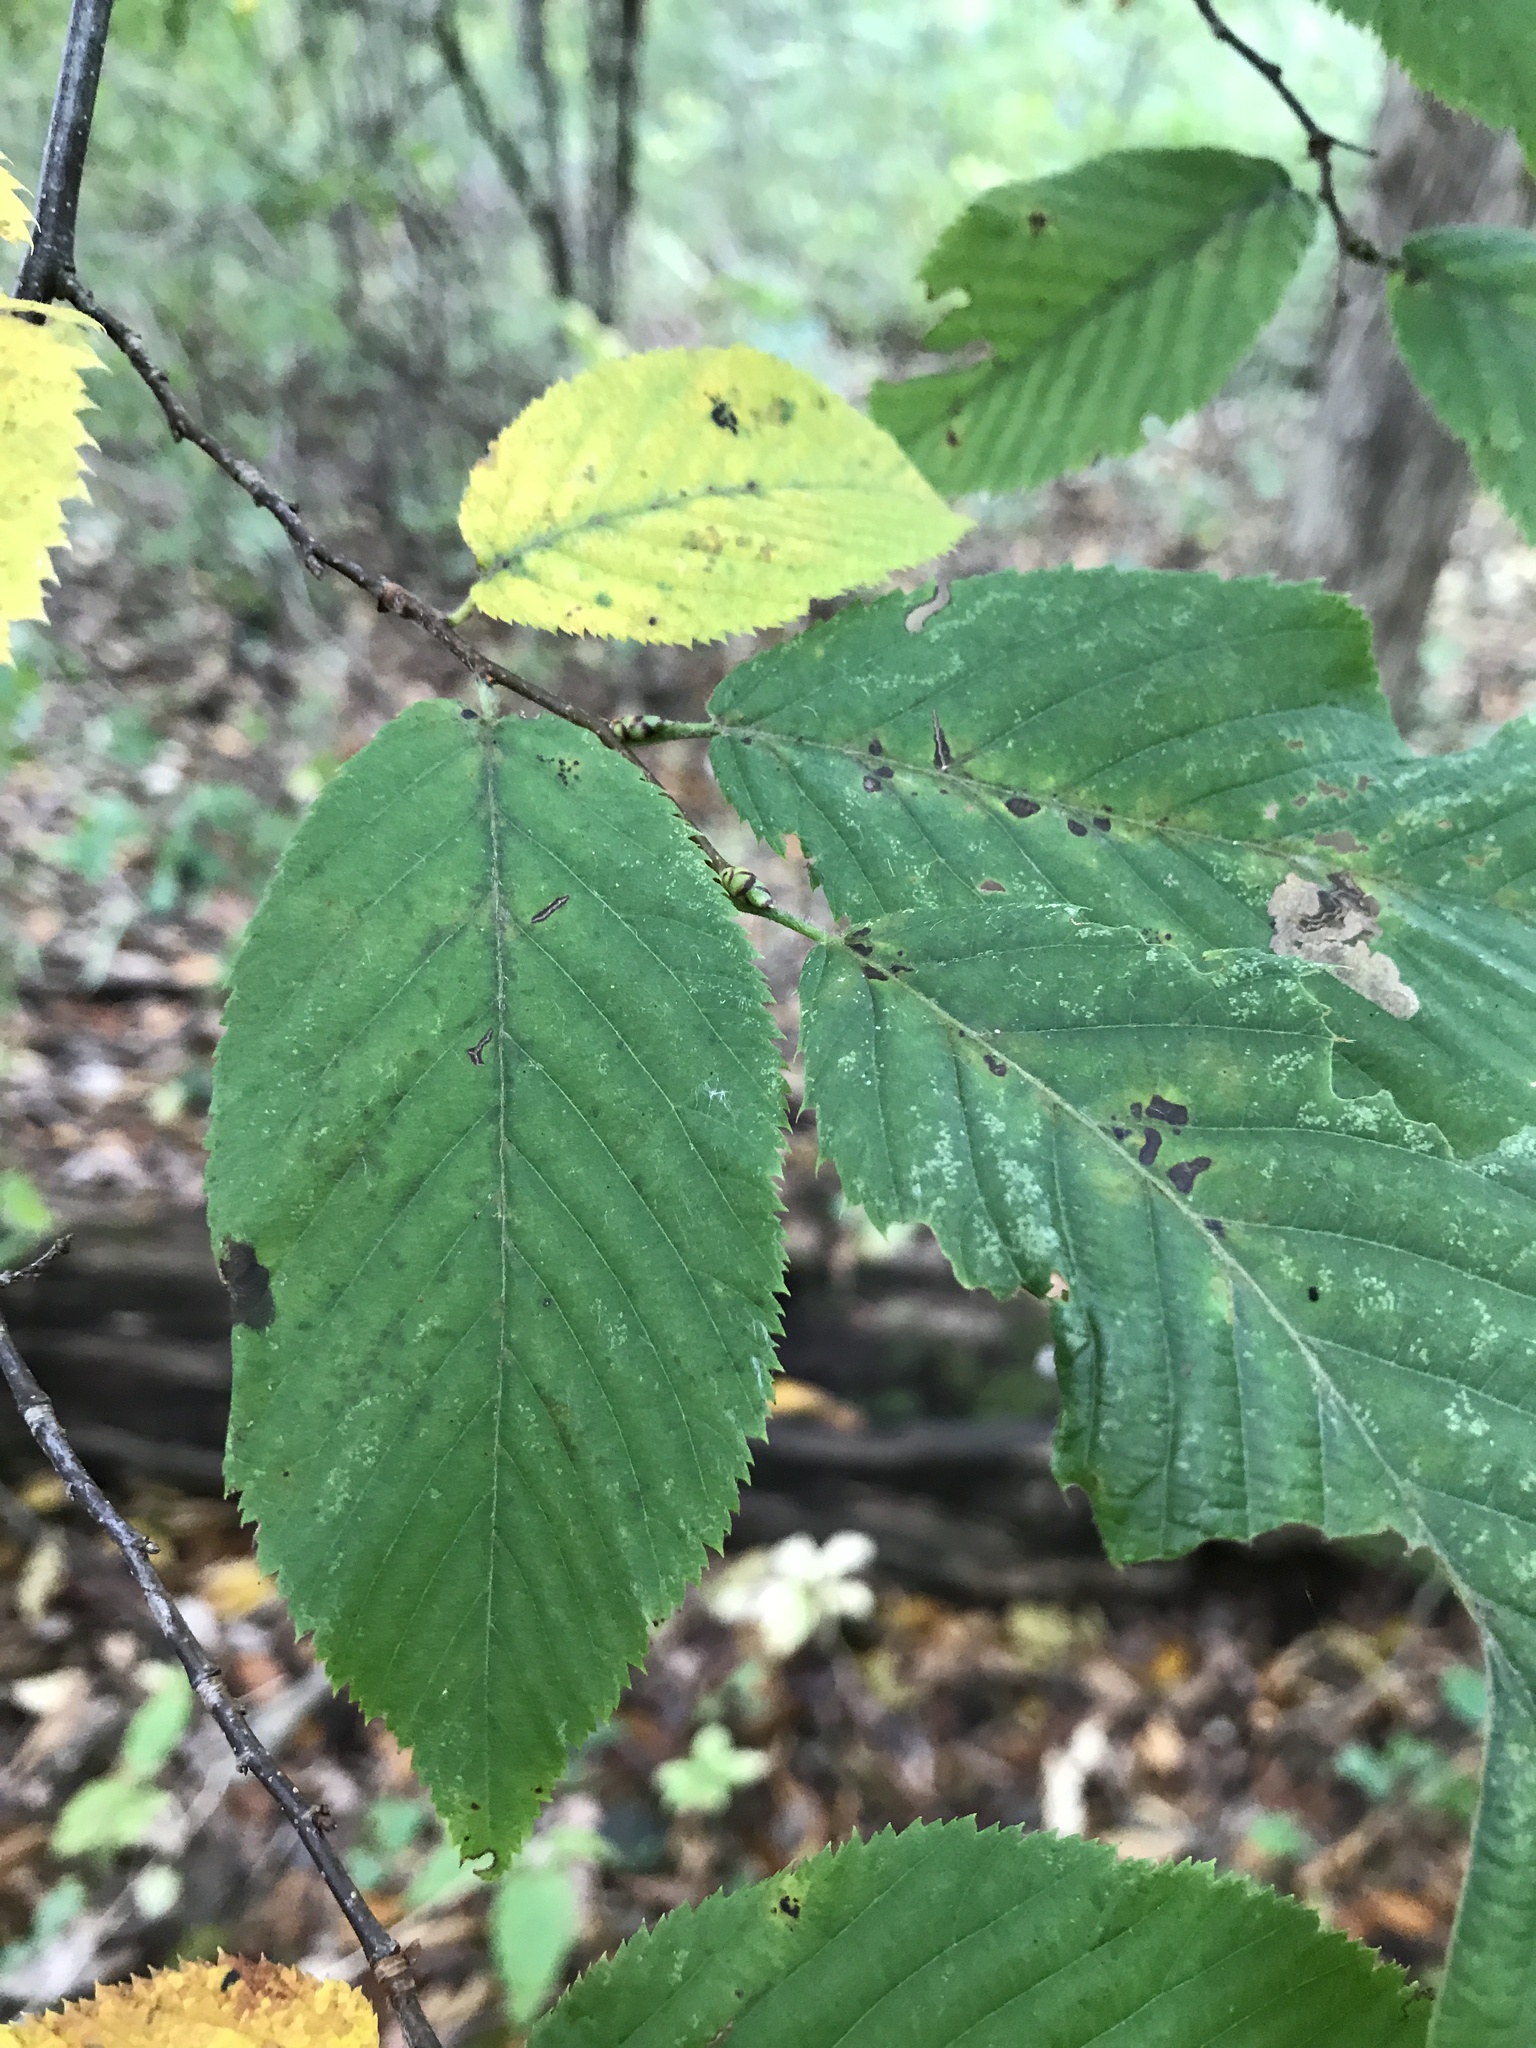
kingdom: Plantae
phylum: Tracheophyta
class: Magnoliopsida
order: Fagales
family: Betulaceae
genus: Ostrya
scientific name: Ostrya virginiana
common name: Ironwood
